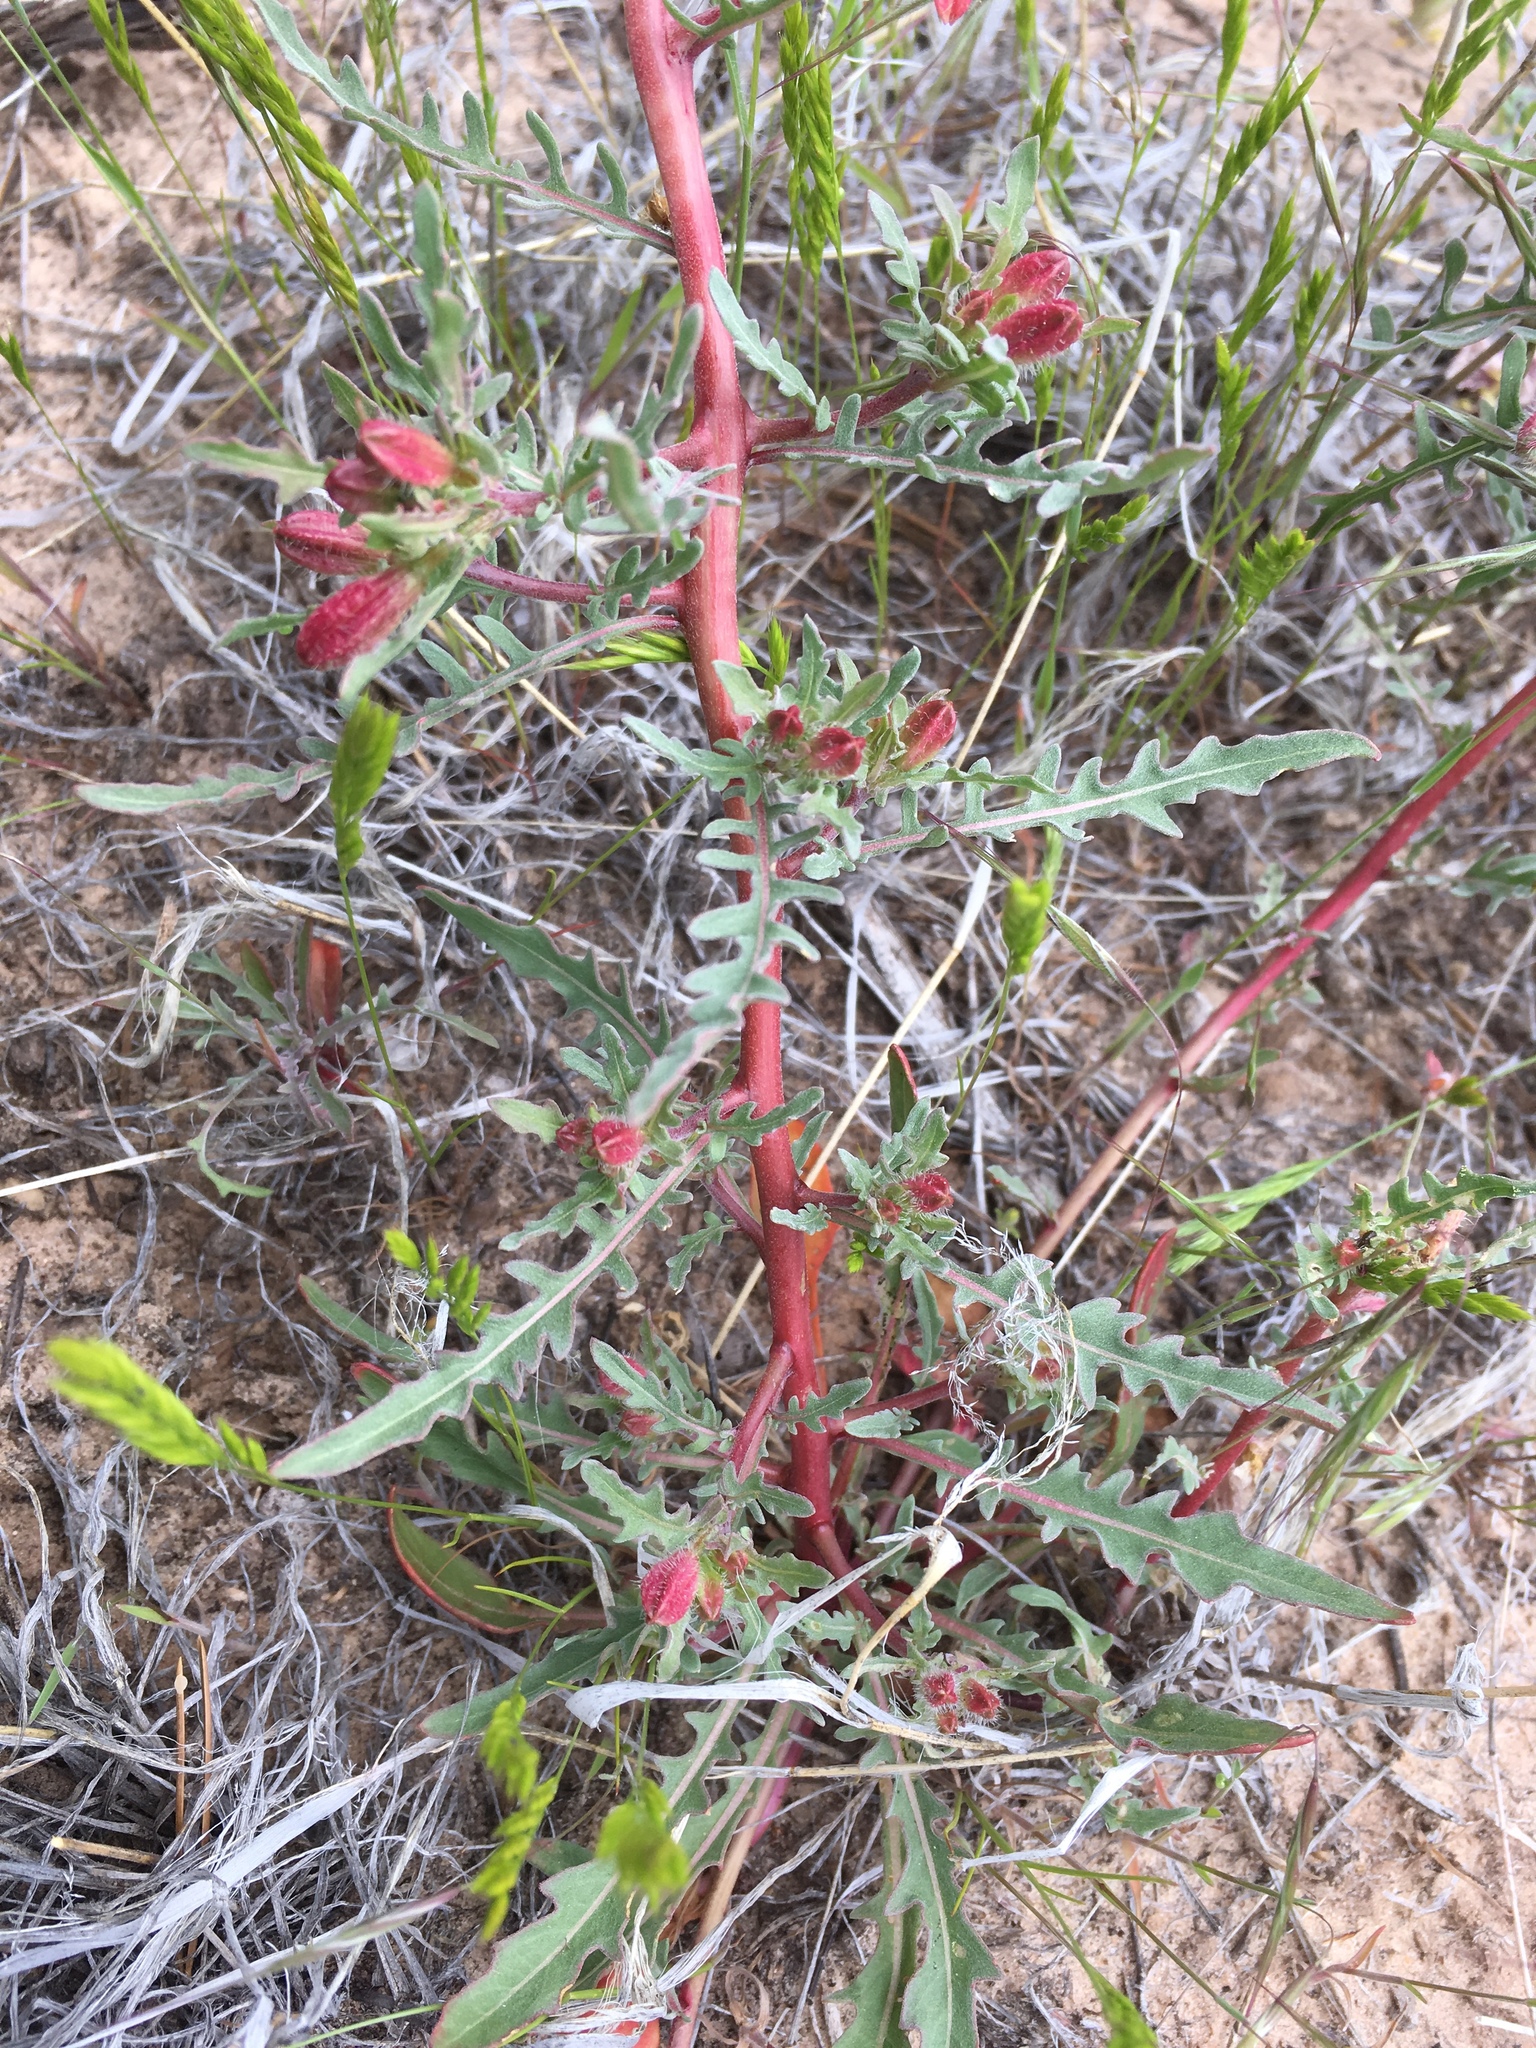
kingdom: Plantae
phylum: Tracheophyta
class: Magnoliopsida
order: Myrtales
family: Onagraceae
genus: Oenothera
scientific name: Oenothera pallida
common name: Pale evening-primrose
